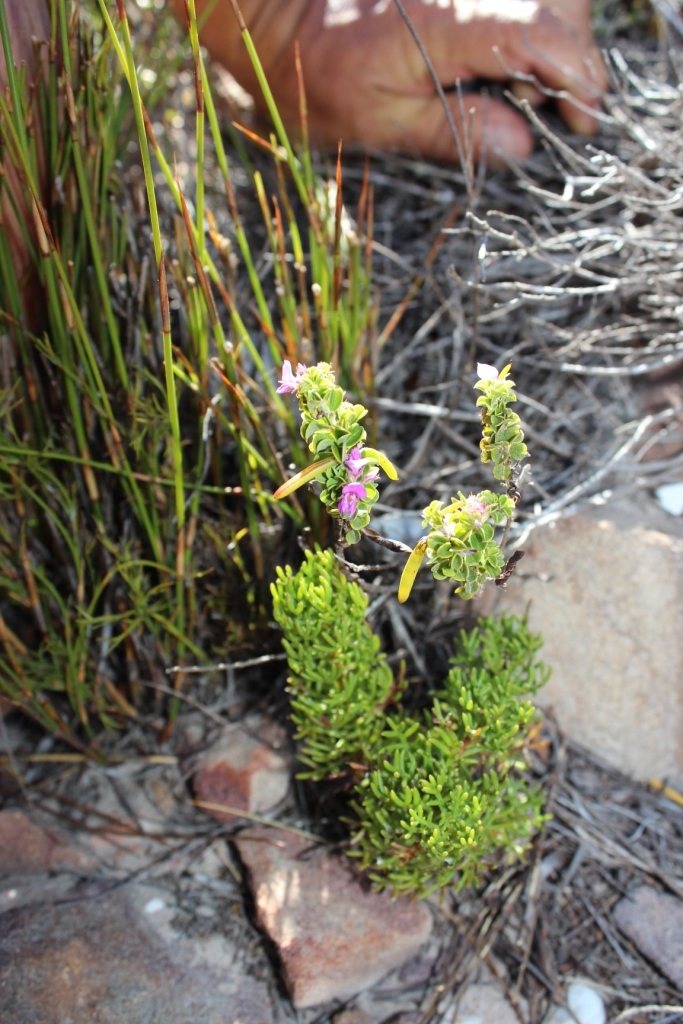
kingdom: Plantae
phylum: Tracheophyta
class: Magnoliopsida
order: Fabales
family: Fabaceae
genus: Indigofera
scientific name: Indigofera candolleana
